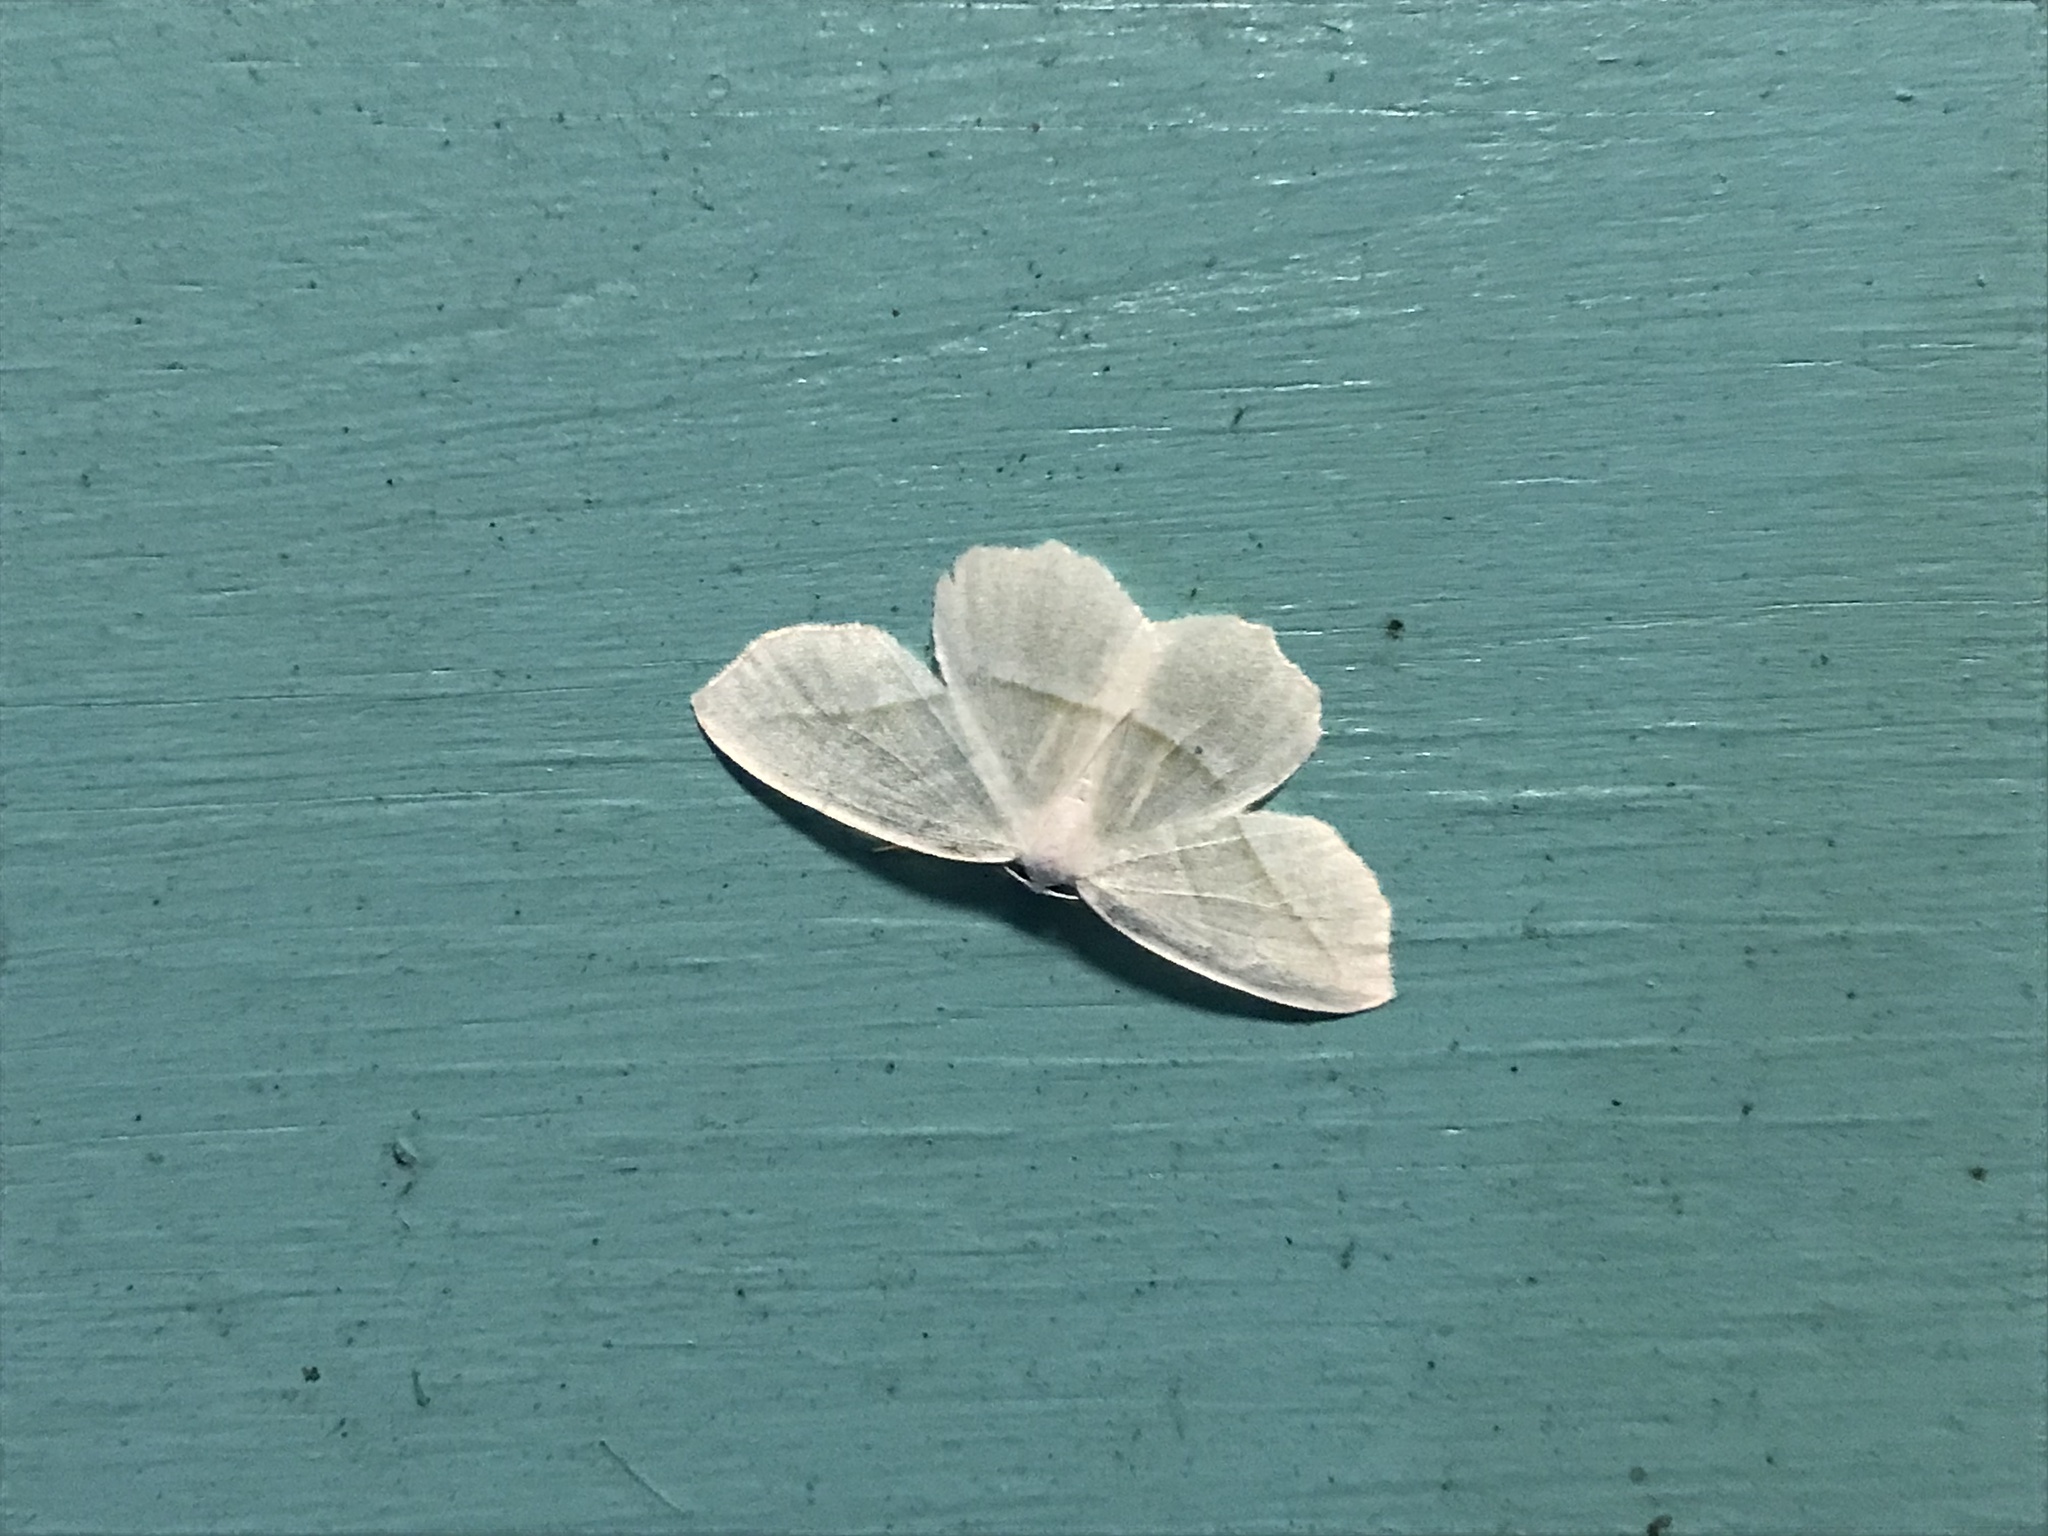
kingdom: Animalia
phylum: Arthropoda
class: Insecta
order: Lepidoptera
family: Geometridae
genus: Campaea
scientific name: Campaea perlata
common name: Fringed looper
